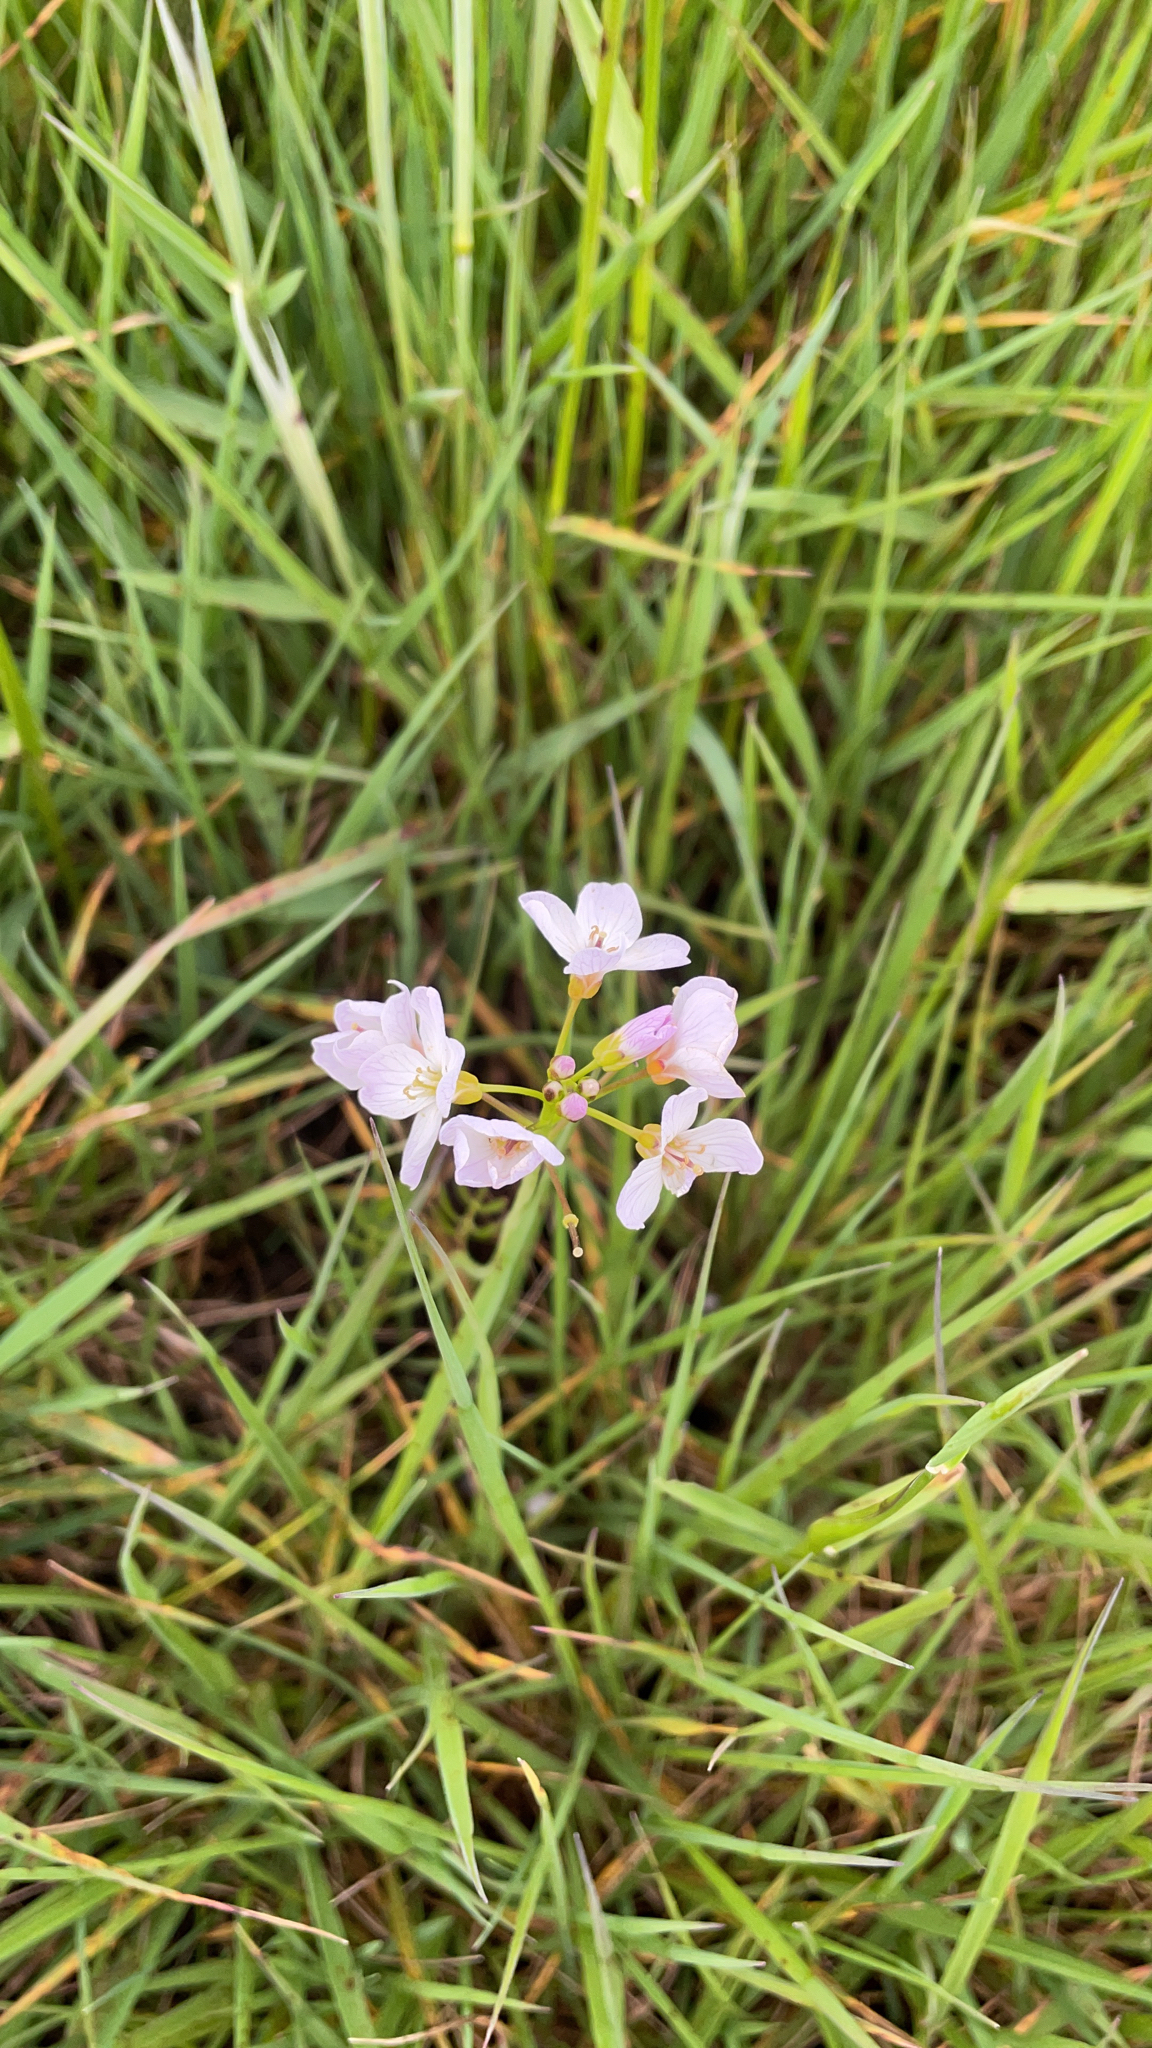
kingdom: Plantae
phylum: Tracheophyta
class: Magnoliopsida
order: Brassicales
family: Brassicaceae
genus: Cardamine
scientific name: Cardamine pratensis
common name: Cuckoo flower
